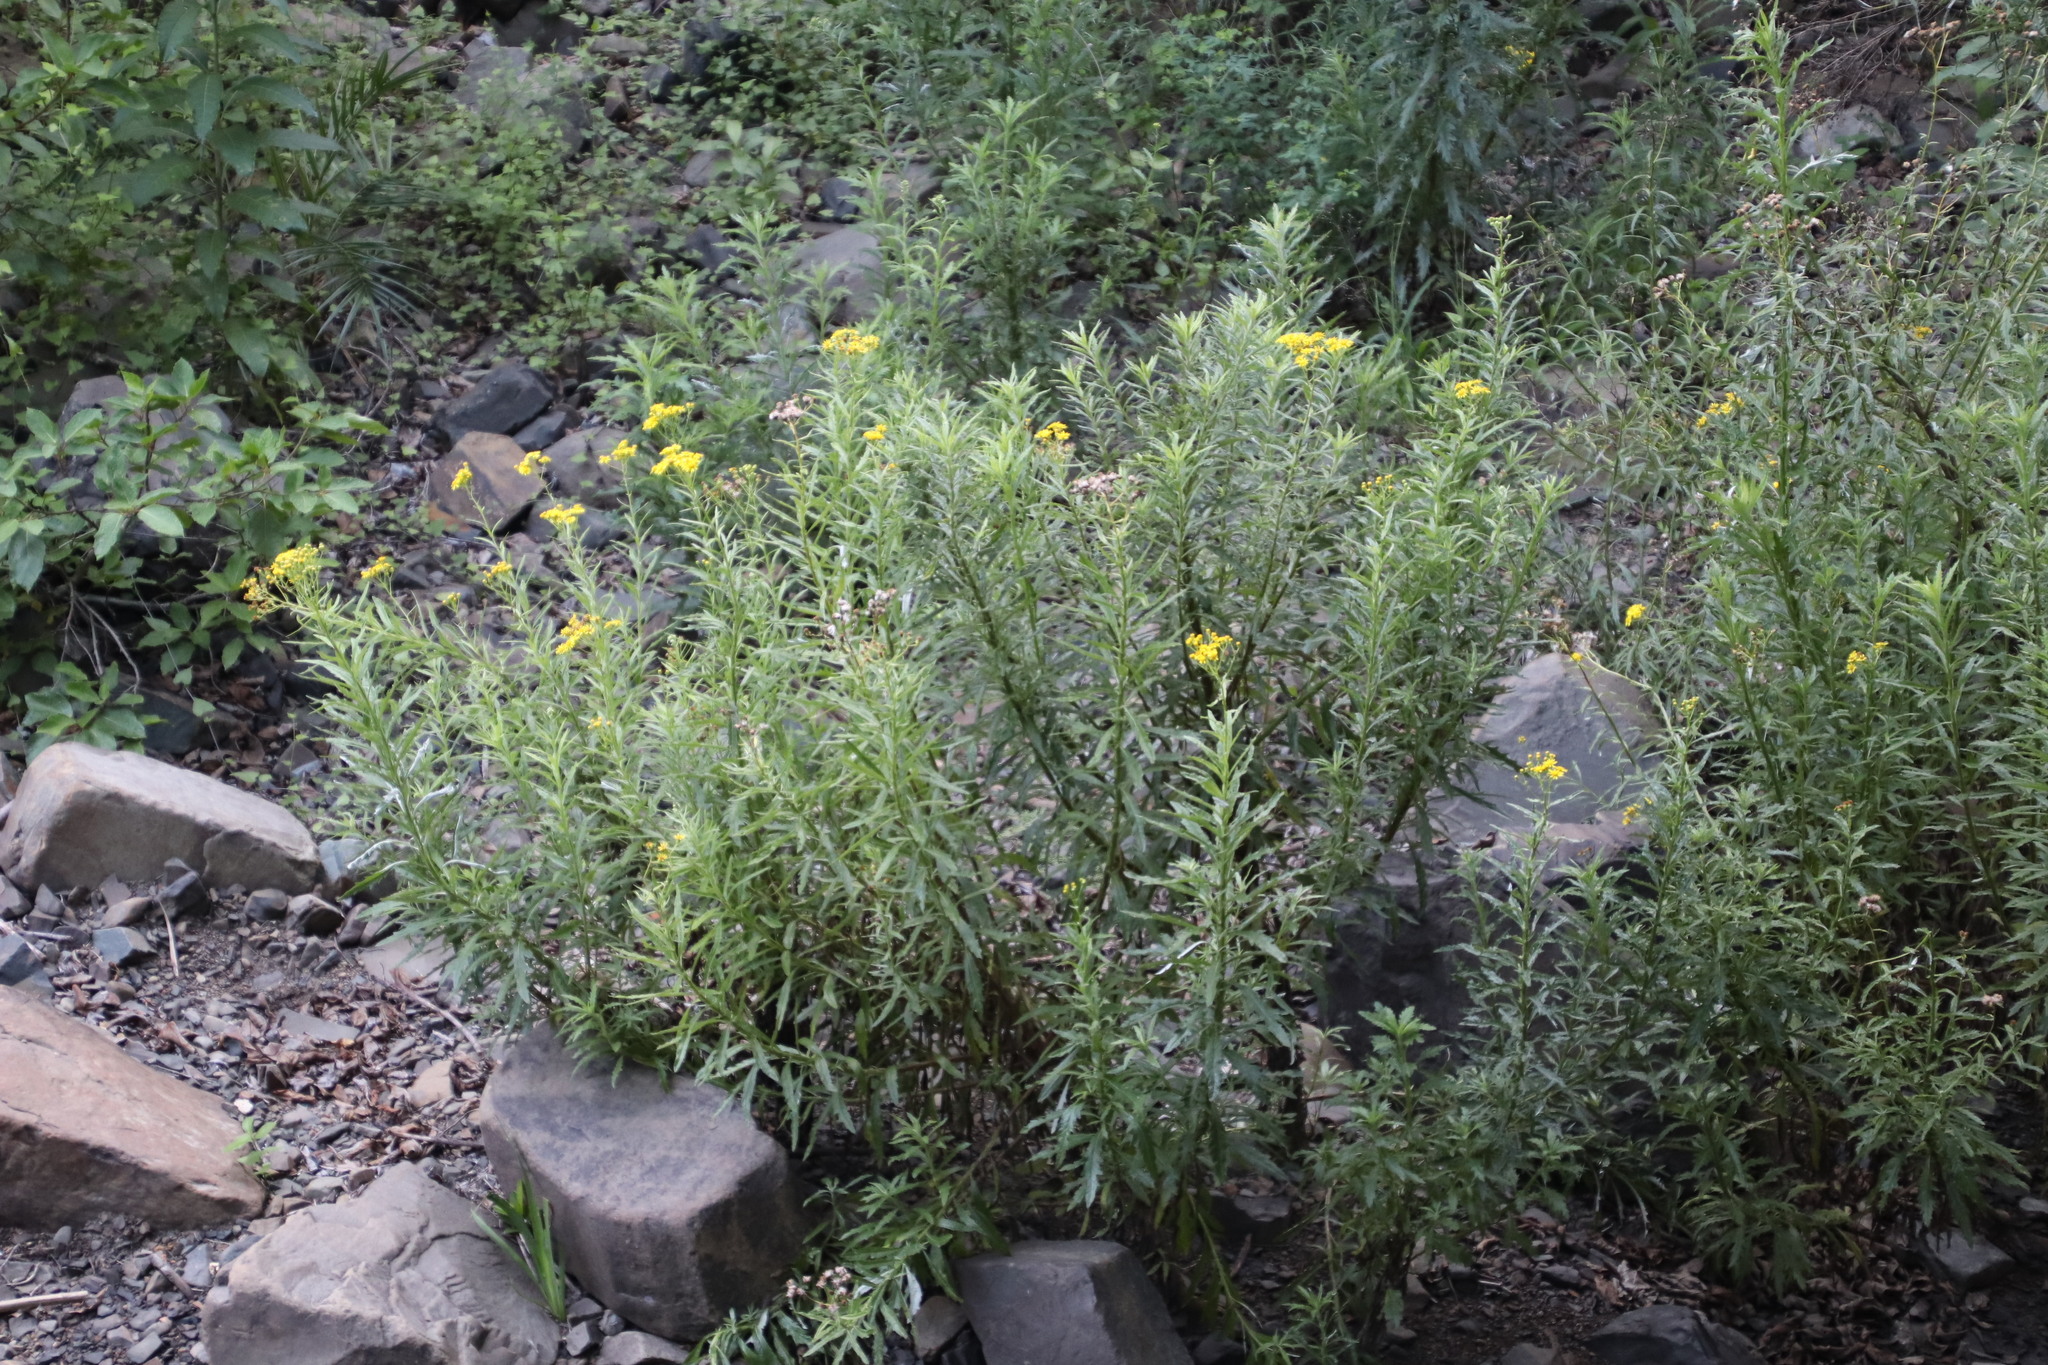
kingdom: Plantae
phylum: Tracheophyta
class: Magnoliopsida
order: Asterales
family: Asteraceae
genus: Senecio
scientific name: Senecio pterophorus
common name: Shoddy ragwort
